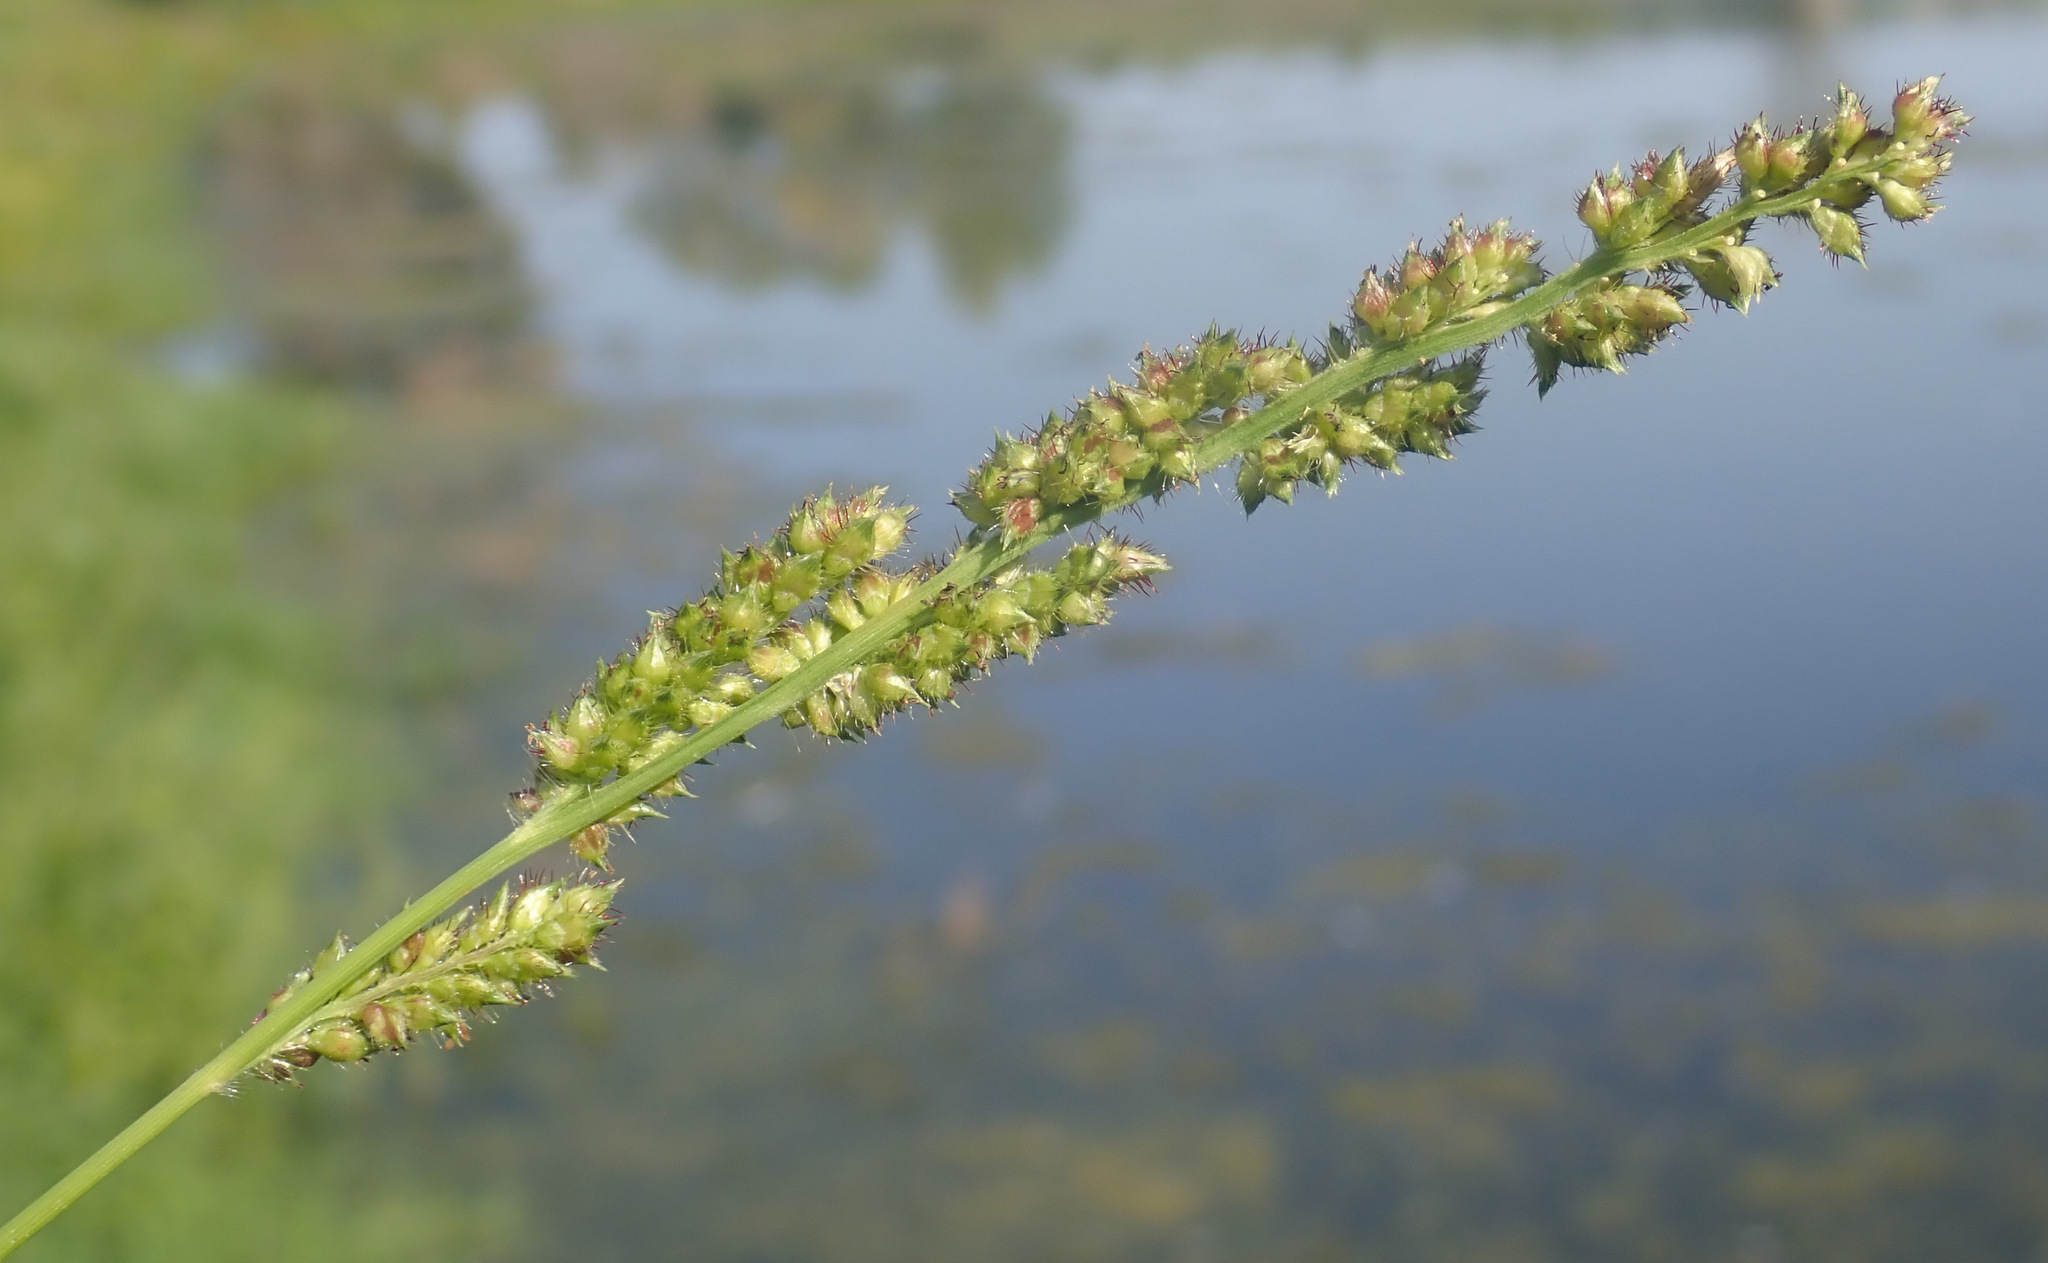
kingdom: Plantae
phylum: Tracheophyta
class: Liliopsida
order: Poales
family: Poaceae
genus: Echinochloa
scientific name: Echinochloa muricata
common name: American barnyard grass
